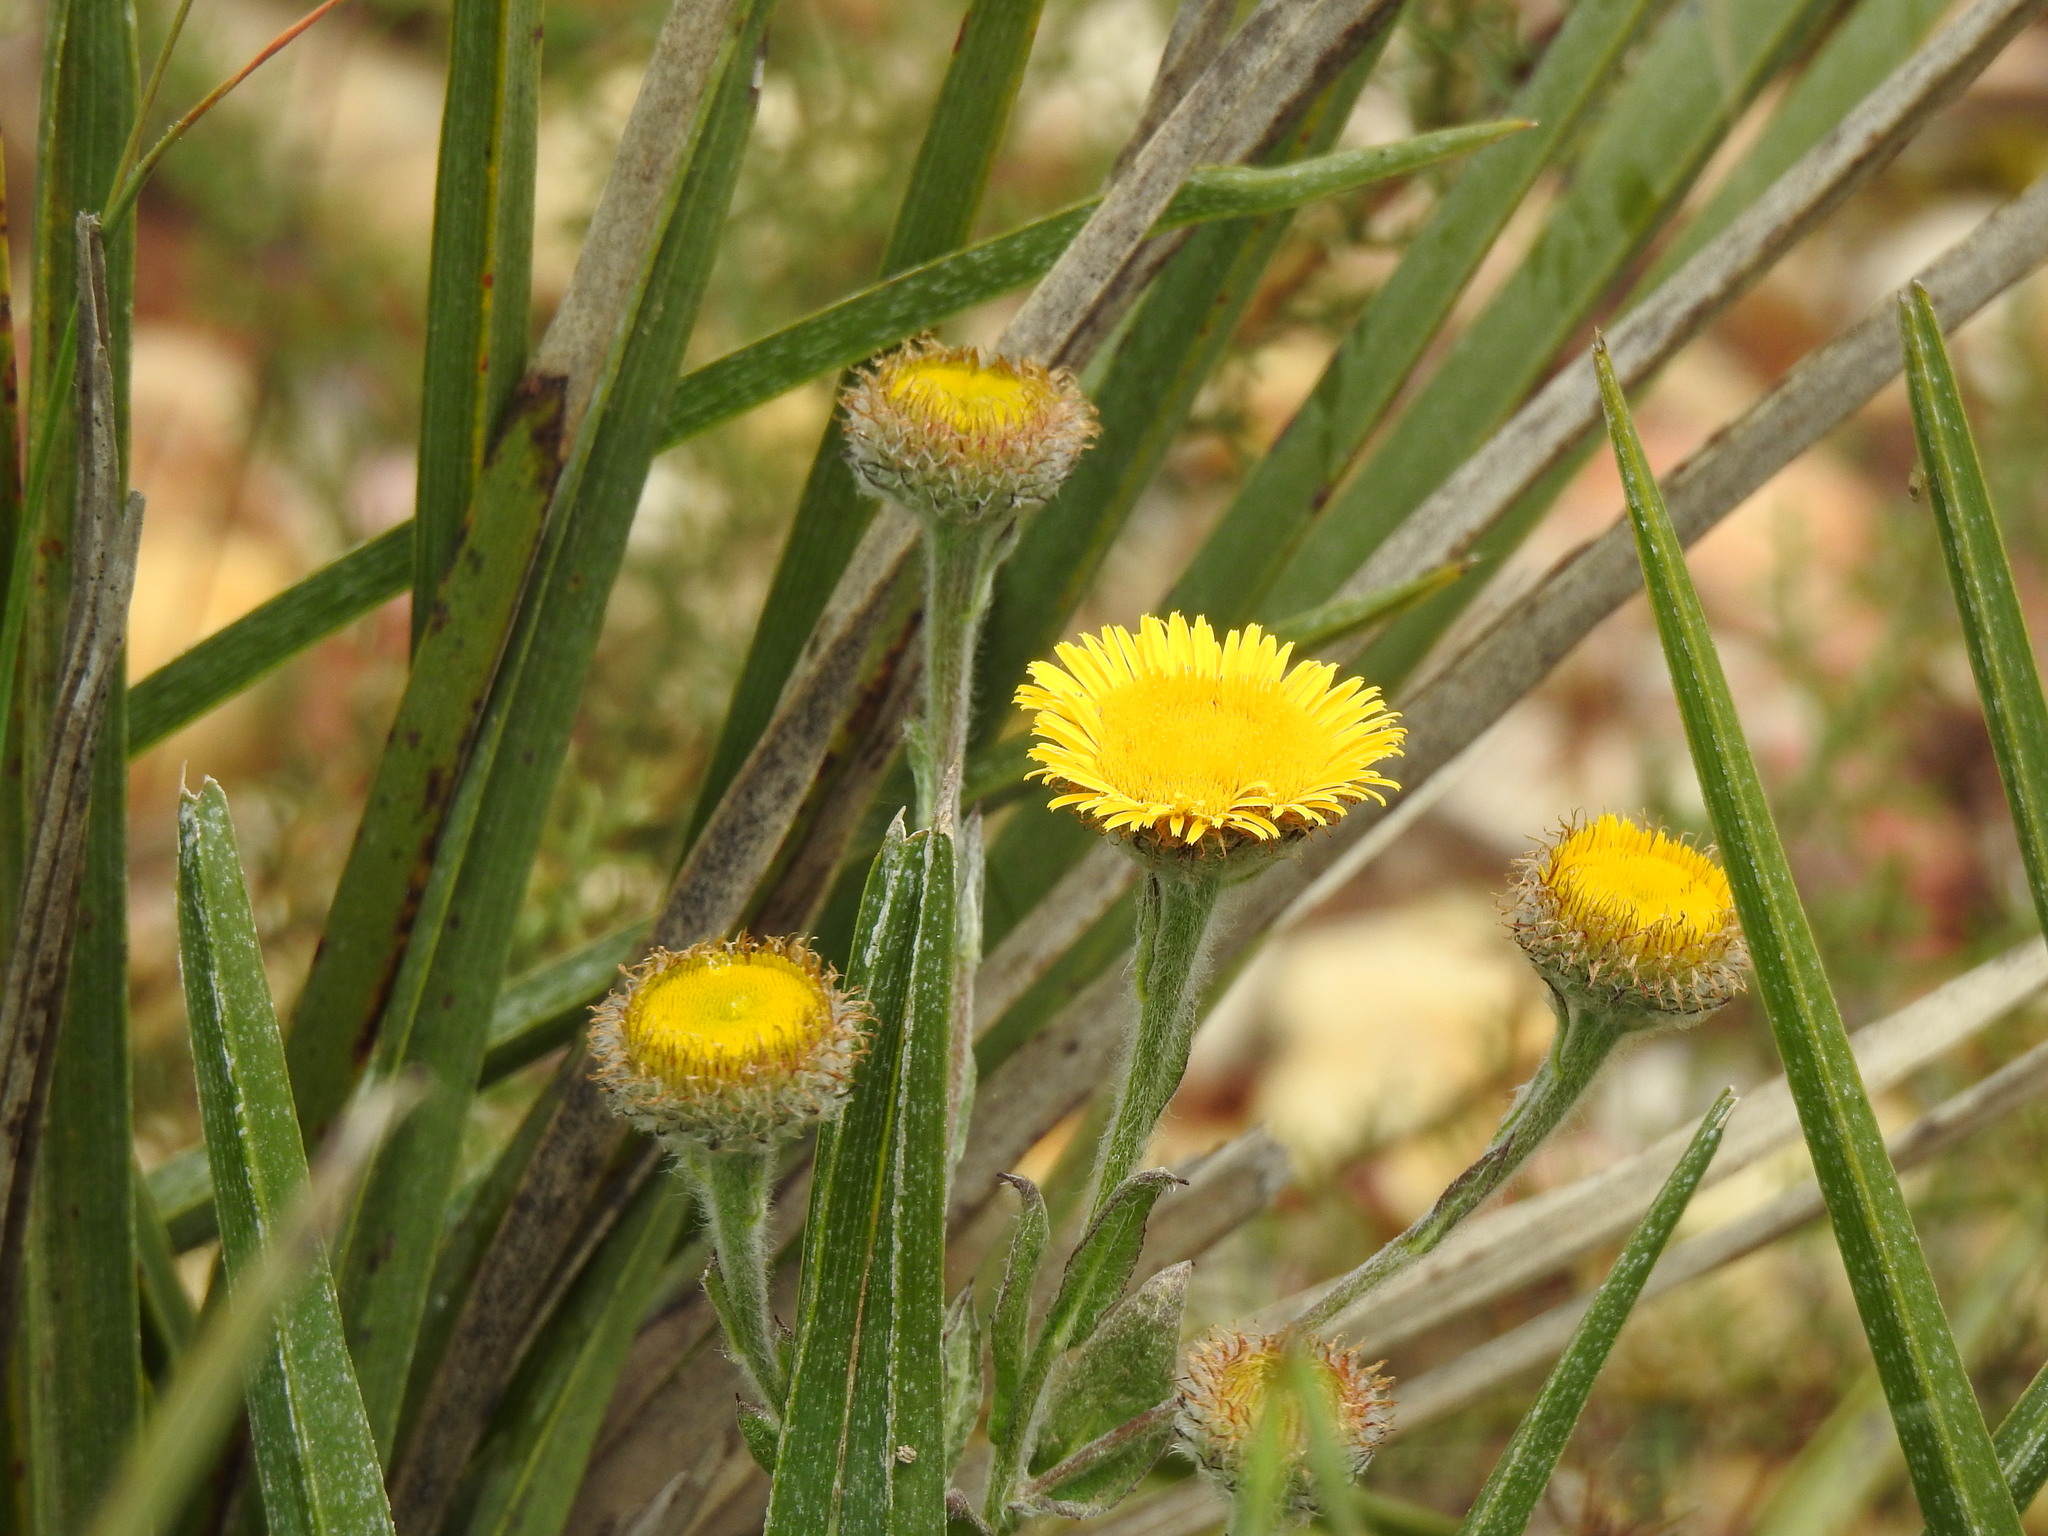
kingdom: Plantae
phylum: Tracheophyta
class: Magnoliopsida
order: Asterales
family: Asteraceae
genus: Pulicaria
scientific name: Pulicaria odora
